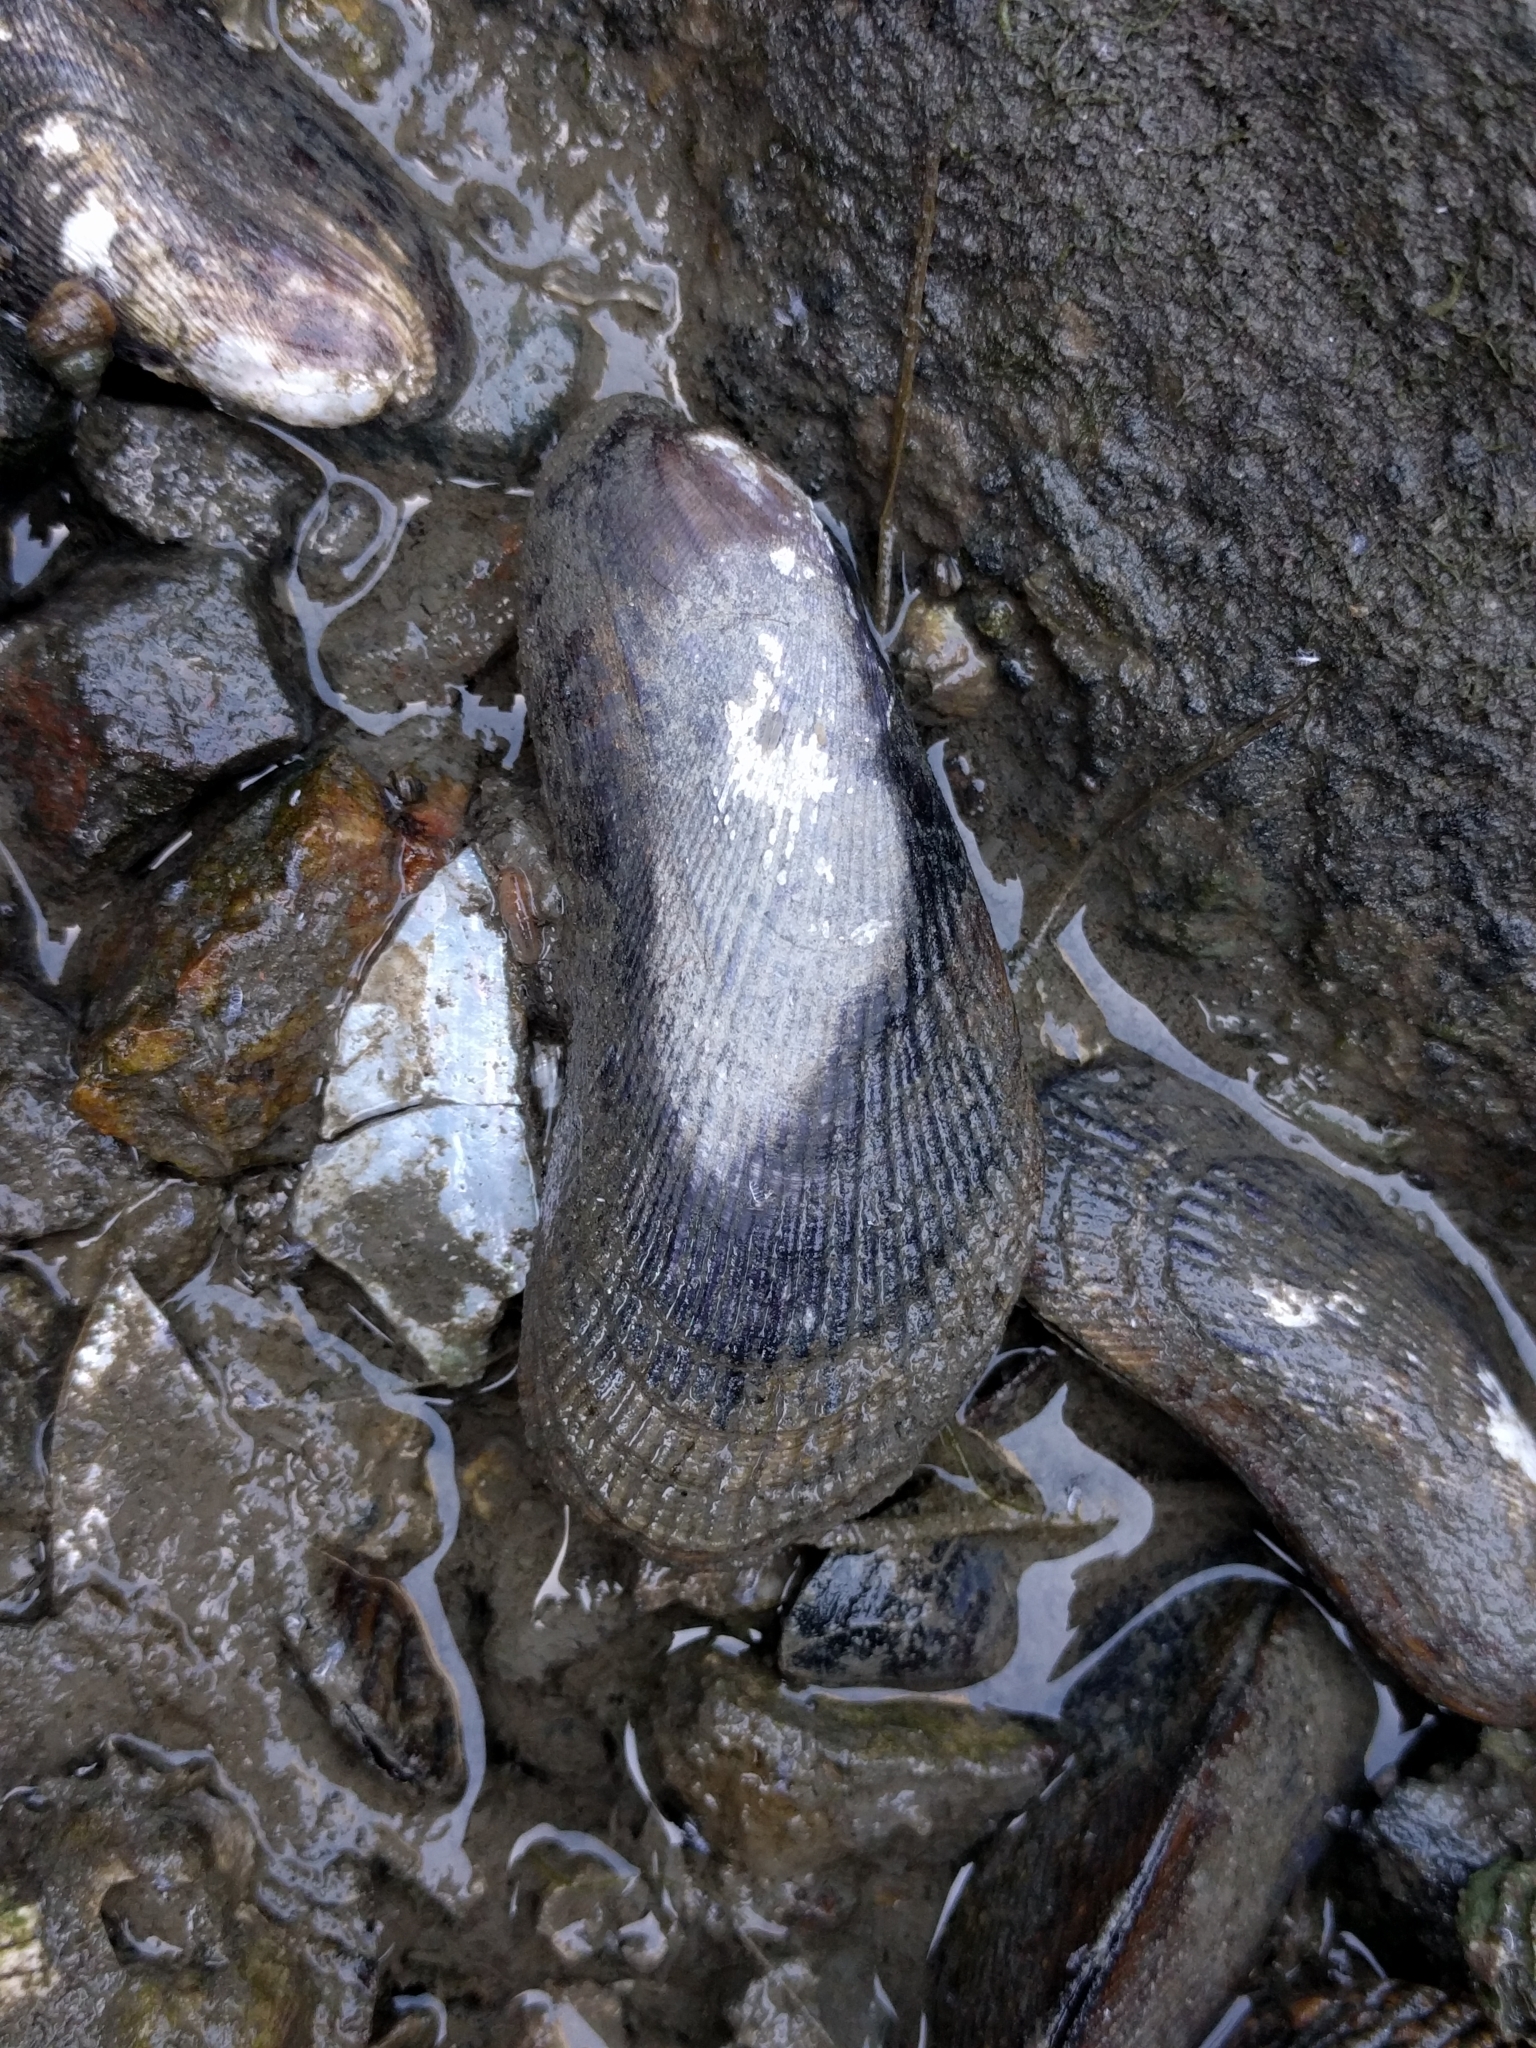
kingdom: Animalia
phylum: Mollusca
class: Bivalvia
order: Mytilida
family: Mytilidae
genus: Geukensia
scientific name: Geukensia demissa
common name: Ribbed mussel
